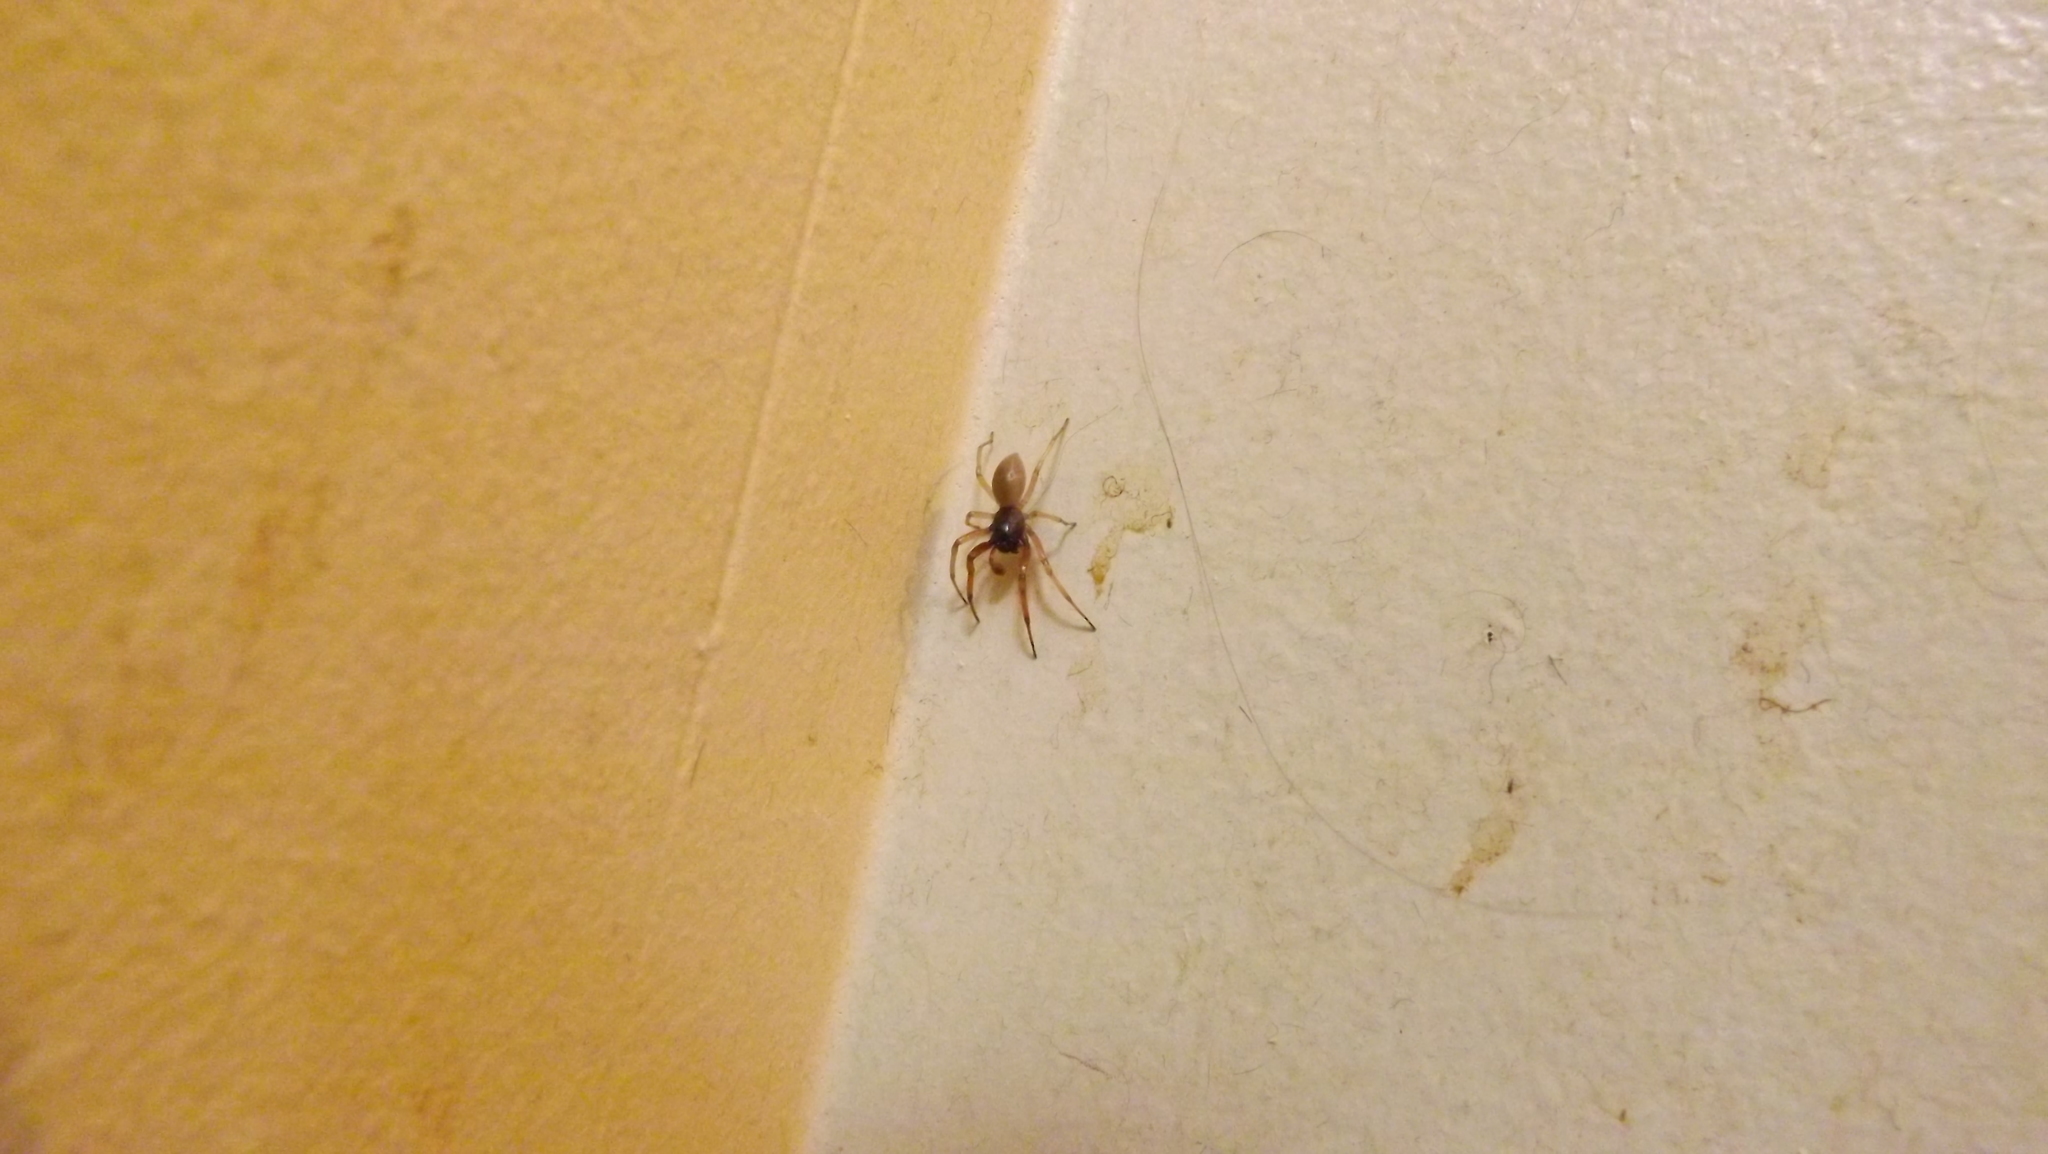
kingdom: Animalia
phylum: Arthropoda
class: Arachnida
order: Araneae
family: Trachelidae
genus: Trachelas
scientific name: Trachelas tranquillus
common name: Broad-faced sac spider
